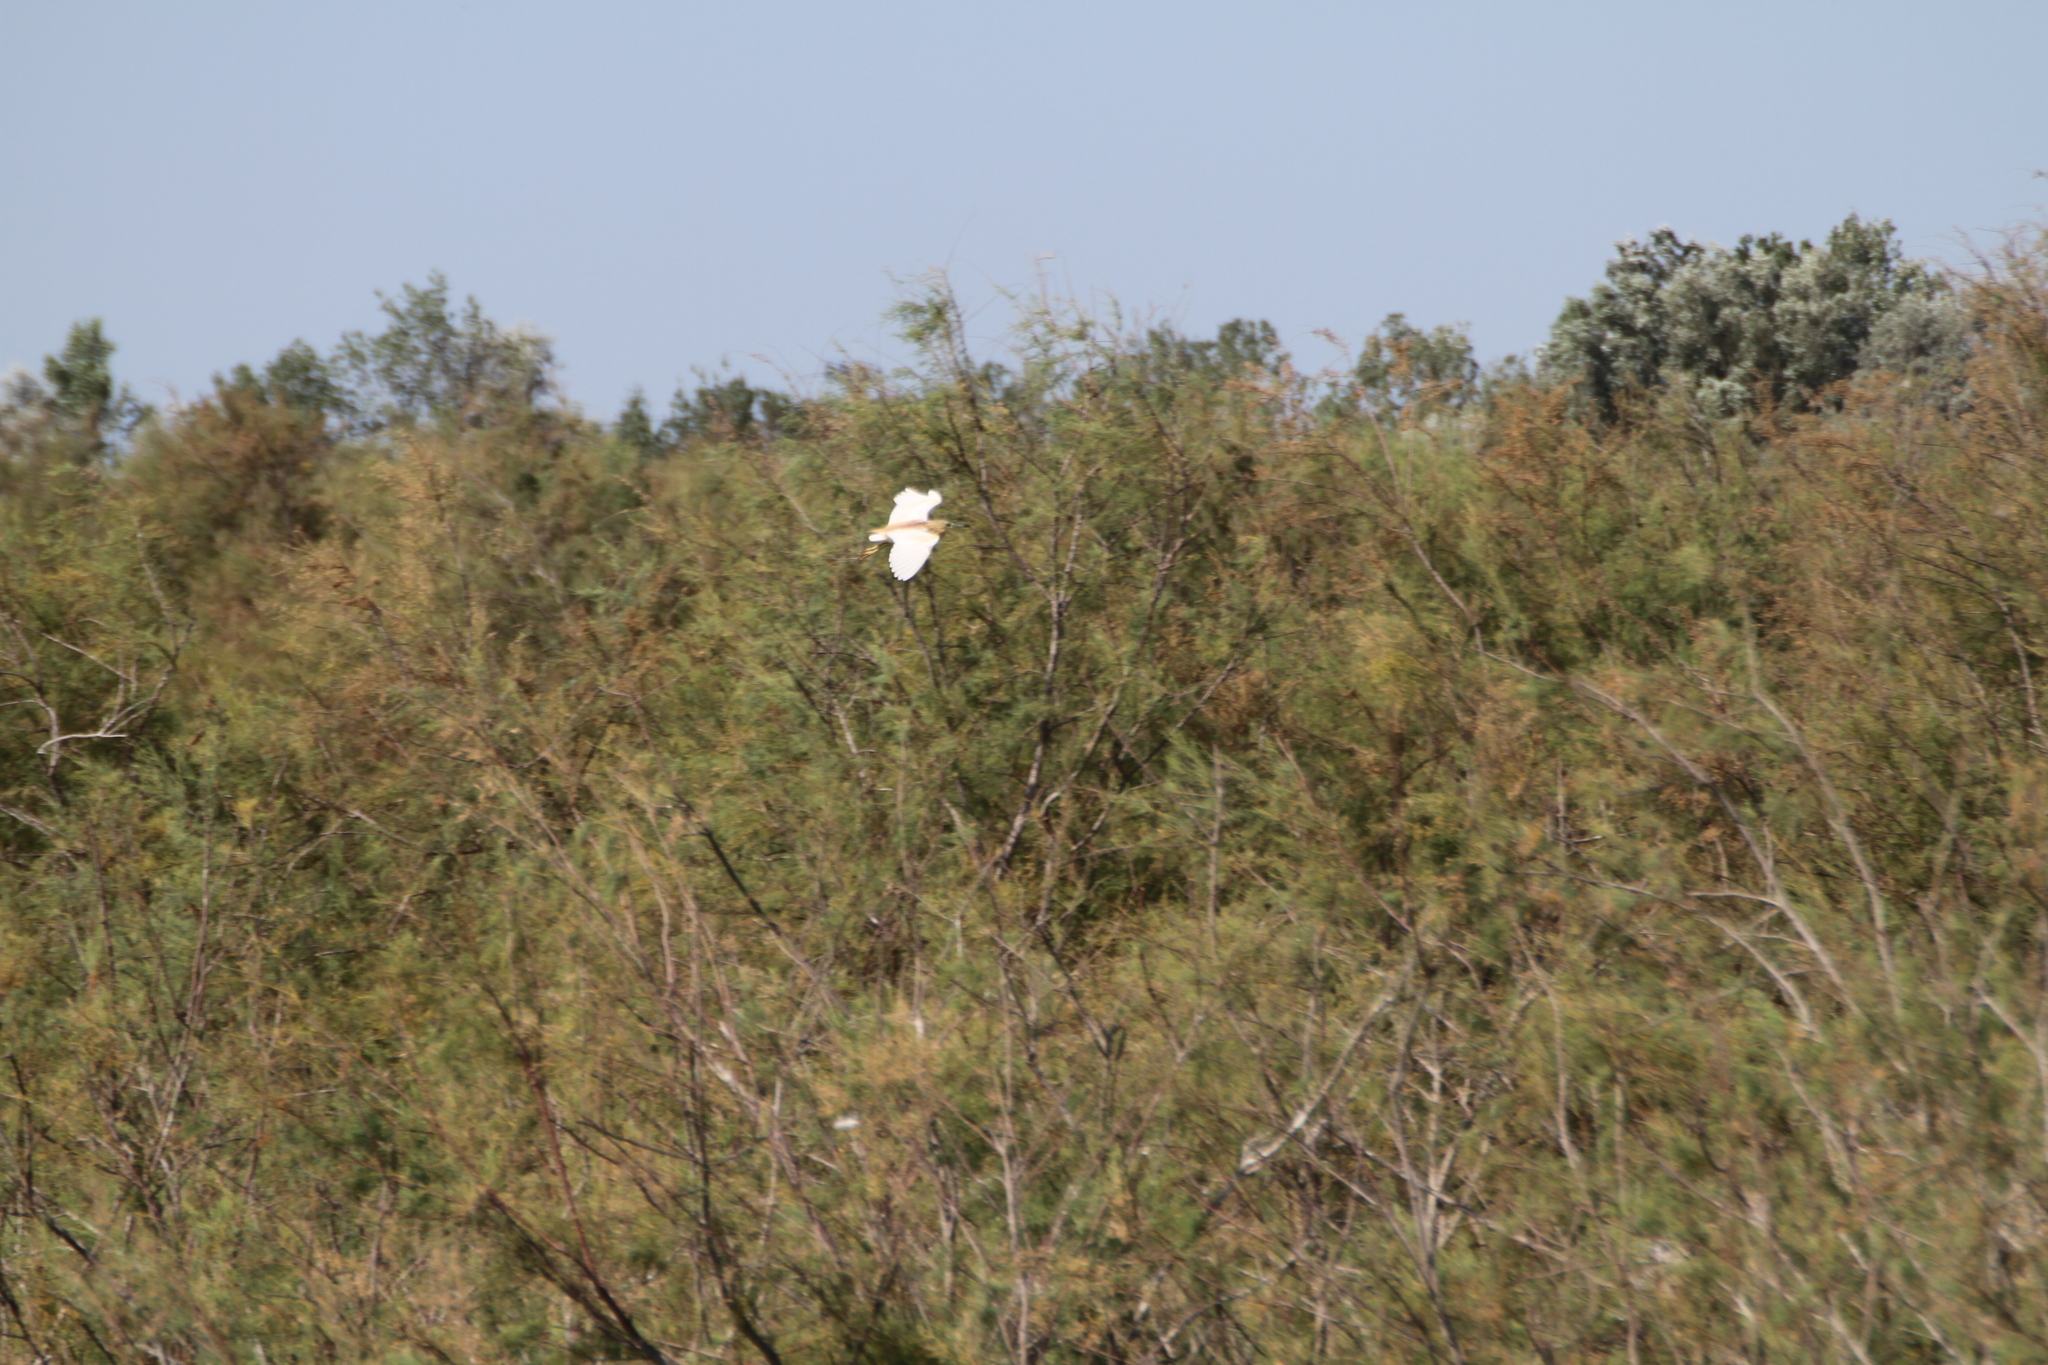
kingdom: Animalia
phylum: Chordata
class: Aves
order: Pelecaniformes
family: Ardeidae
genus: Ardeola
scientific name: Ardeola ralloides
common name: Squacco heron
